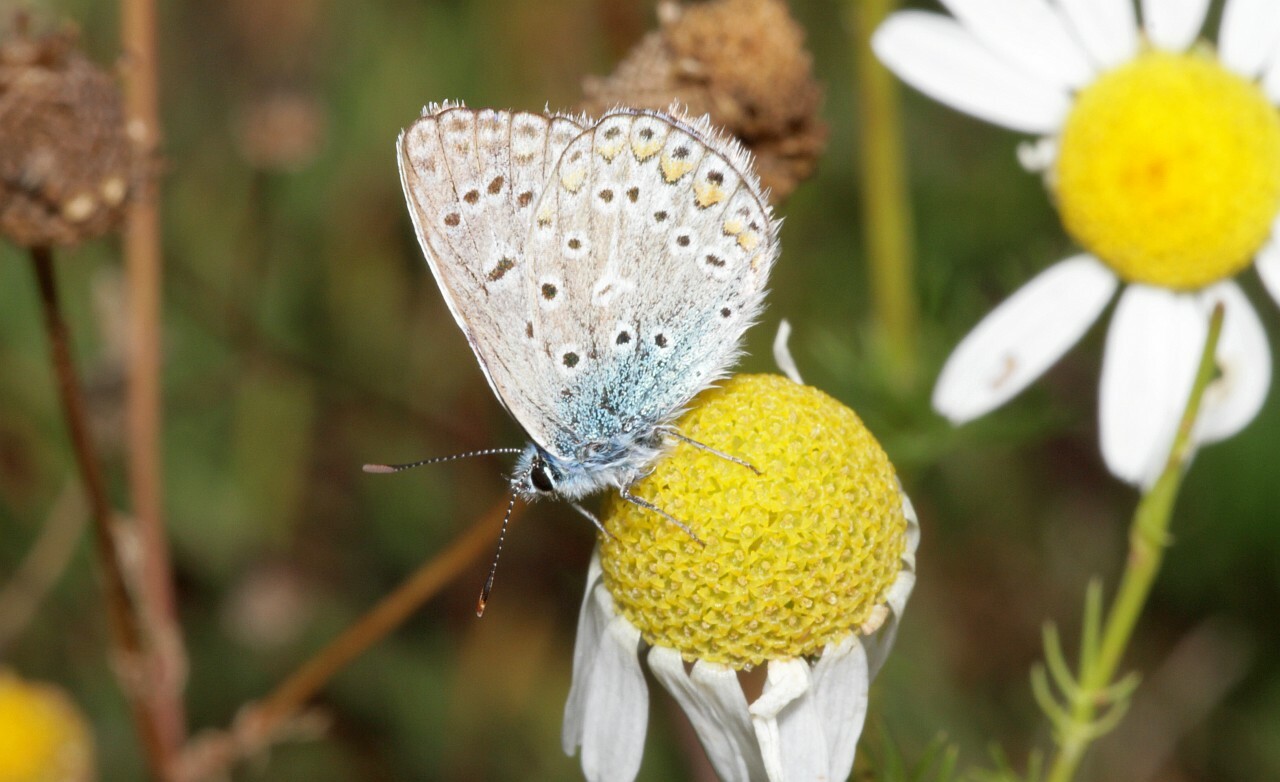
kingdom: Animalia
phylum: Arthropoda
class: Insecta
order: Lepidoptera
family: Lycaenidae
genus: Polyommatus
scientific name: Polyommatus icarus
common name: Common blue
